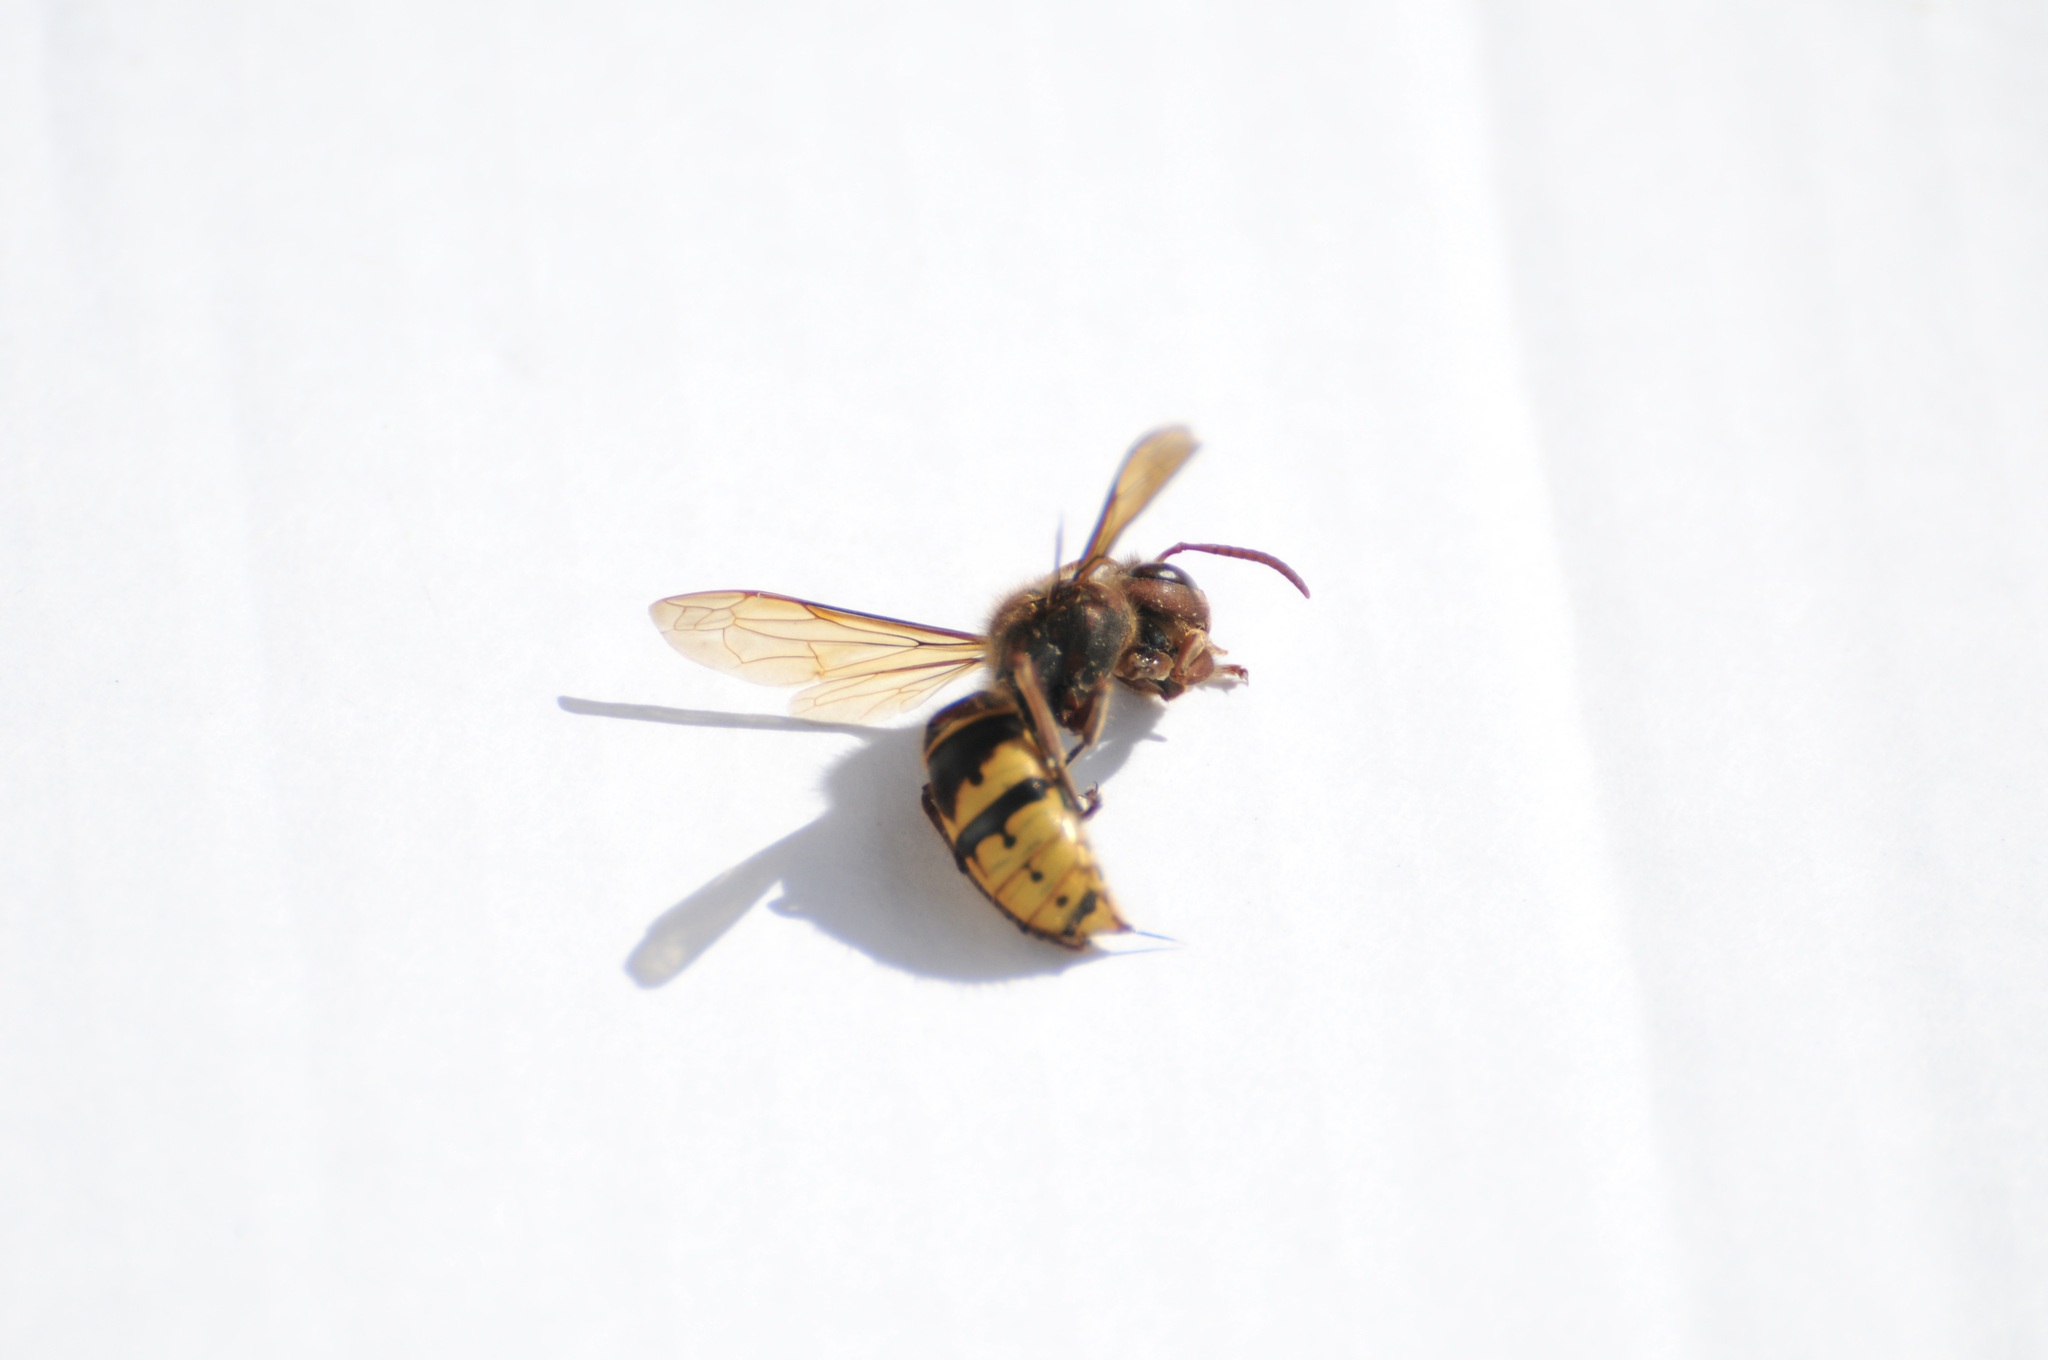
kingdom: Animalia
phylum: Arthropoda
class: Insecta
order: Hymenoptera
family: Vespidae
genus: Vespa
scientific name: Vespa crabro
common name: Hornet
